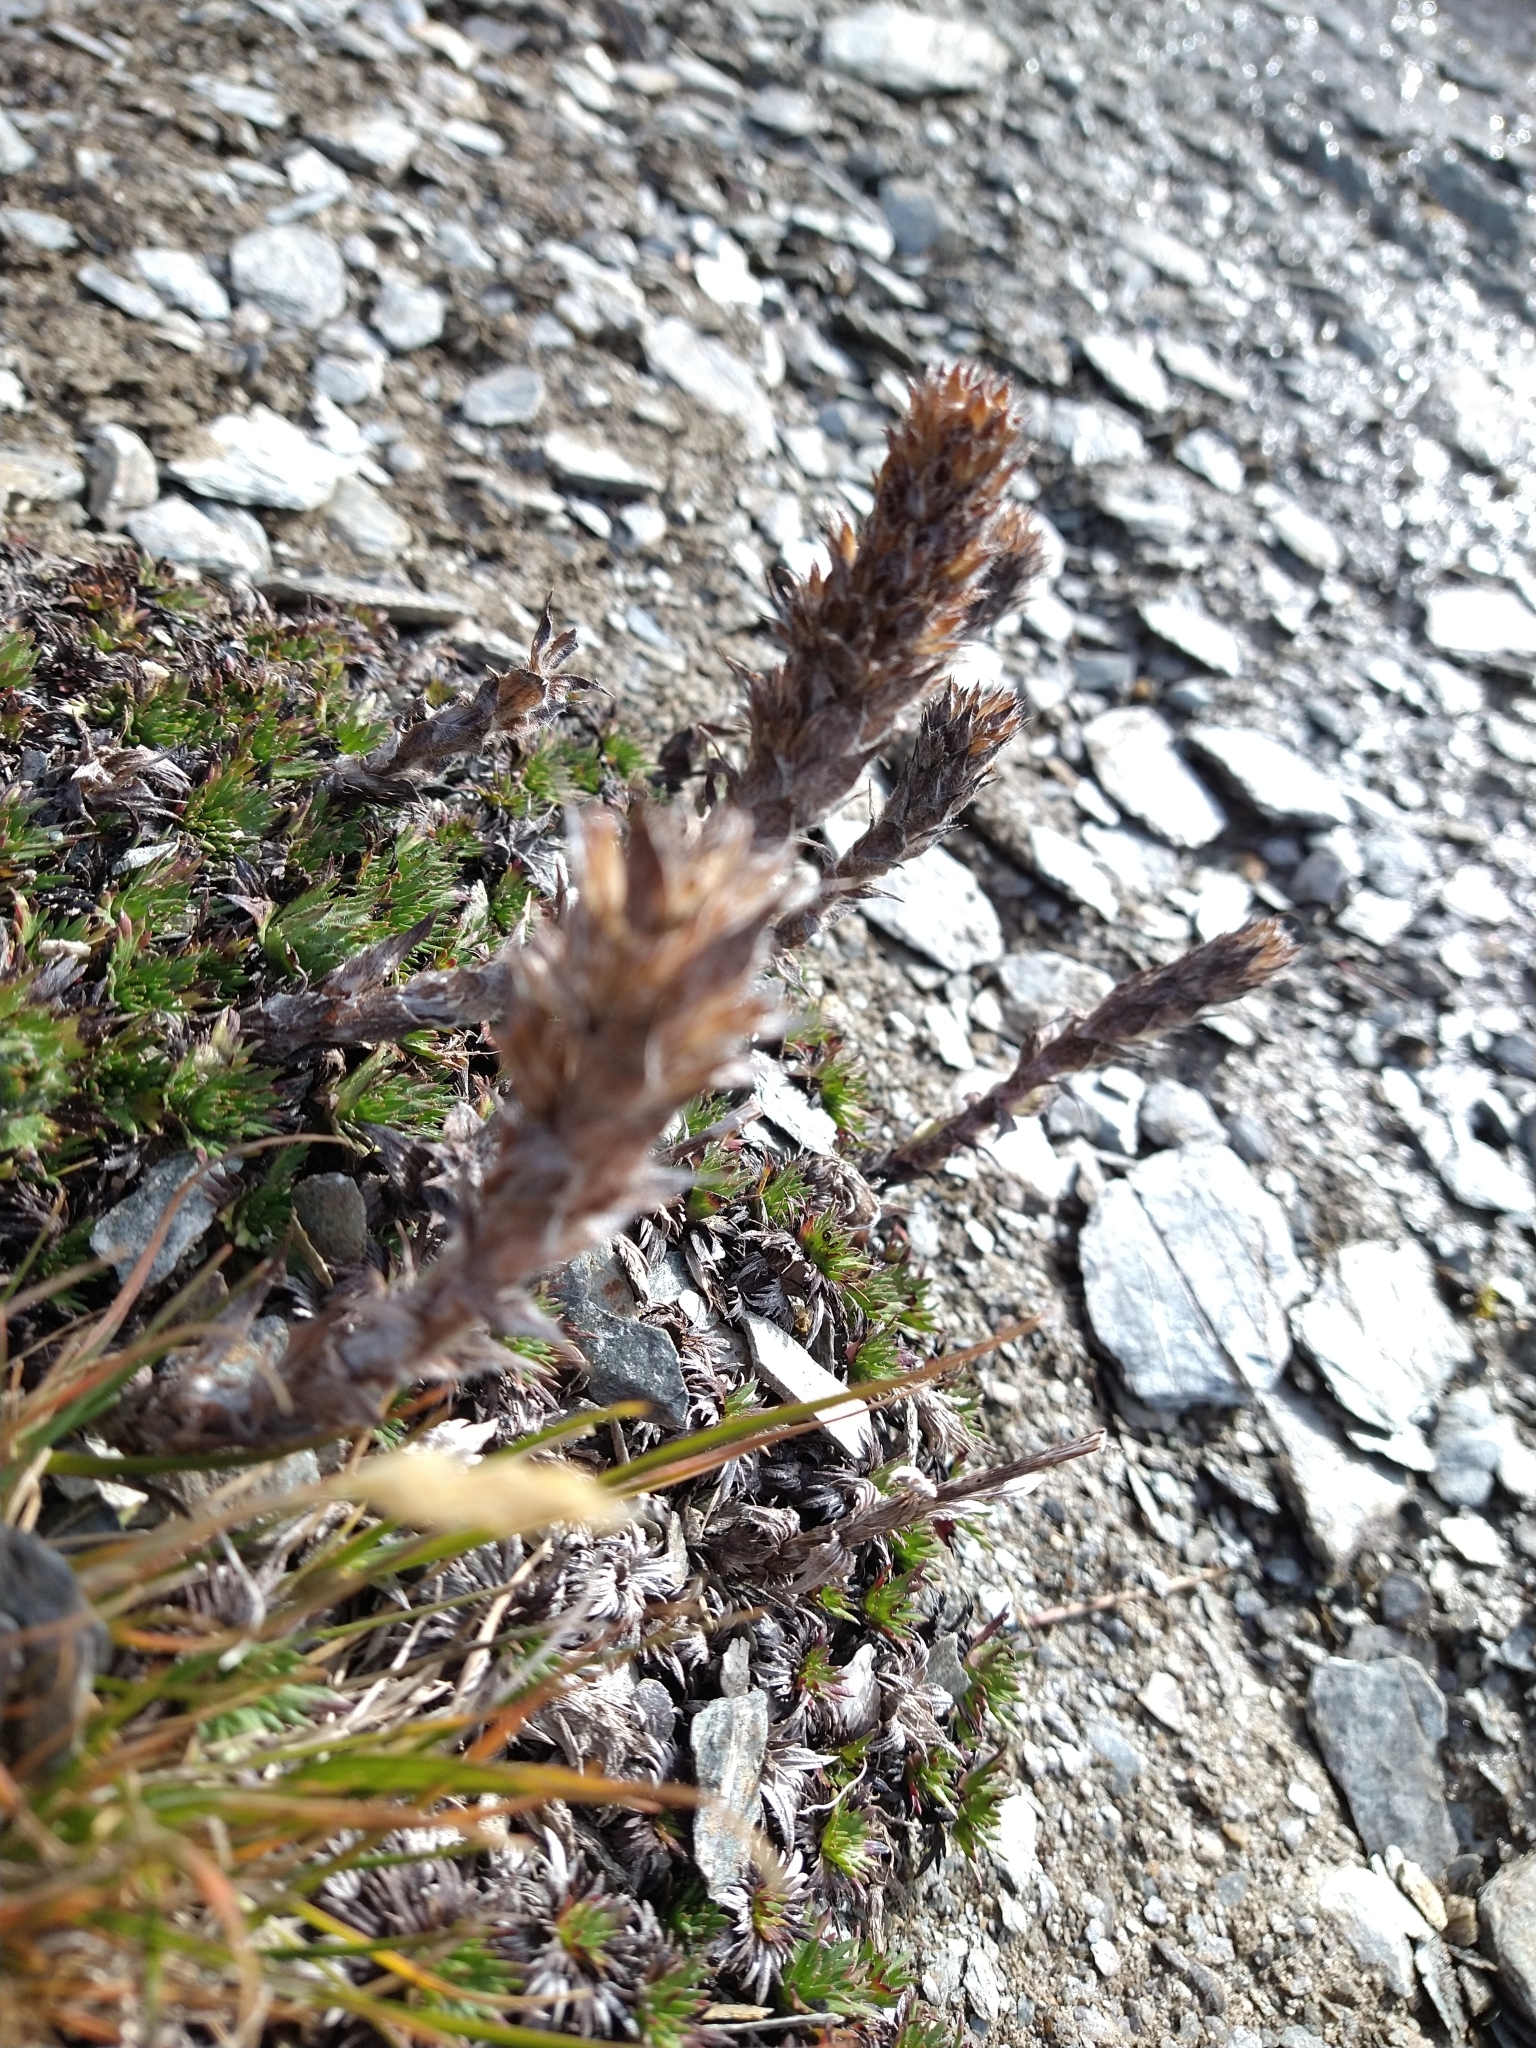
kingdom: Plantae
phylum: Tracheophyta
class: Magnoliopsida
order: Asterales
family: Asteraceae
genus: Nassauvia
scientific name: Nassauvia magellanica
